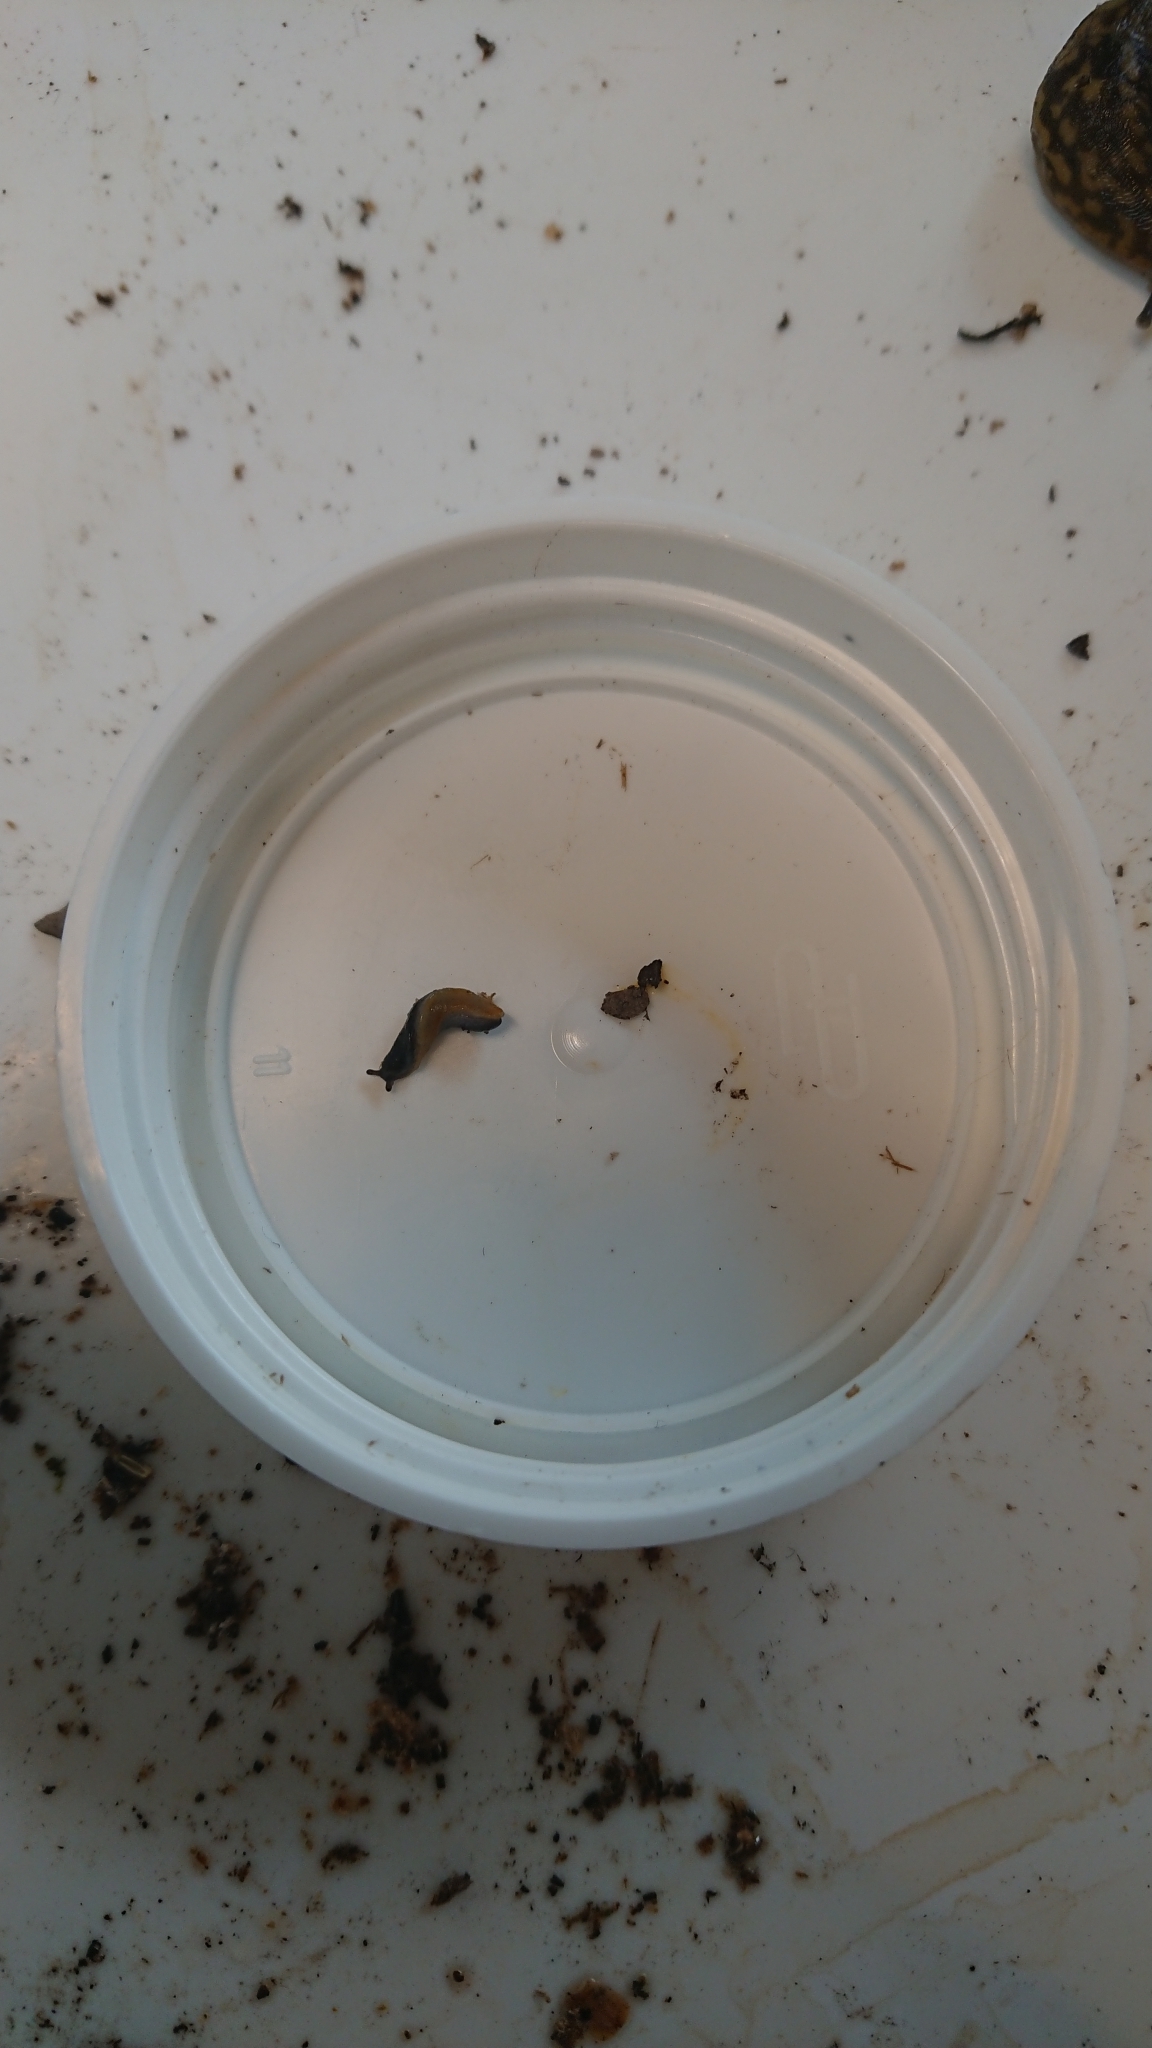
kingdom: Animalia
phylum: Mollusca
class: Gastropoda
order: Stylommatophora
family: Arionidae
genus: Arion
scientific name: Arion hortensis
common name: Garden arion
